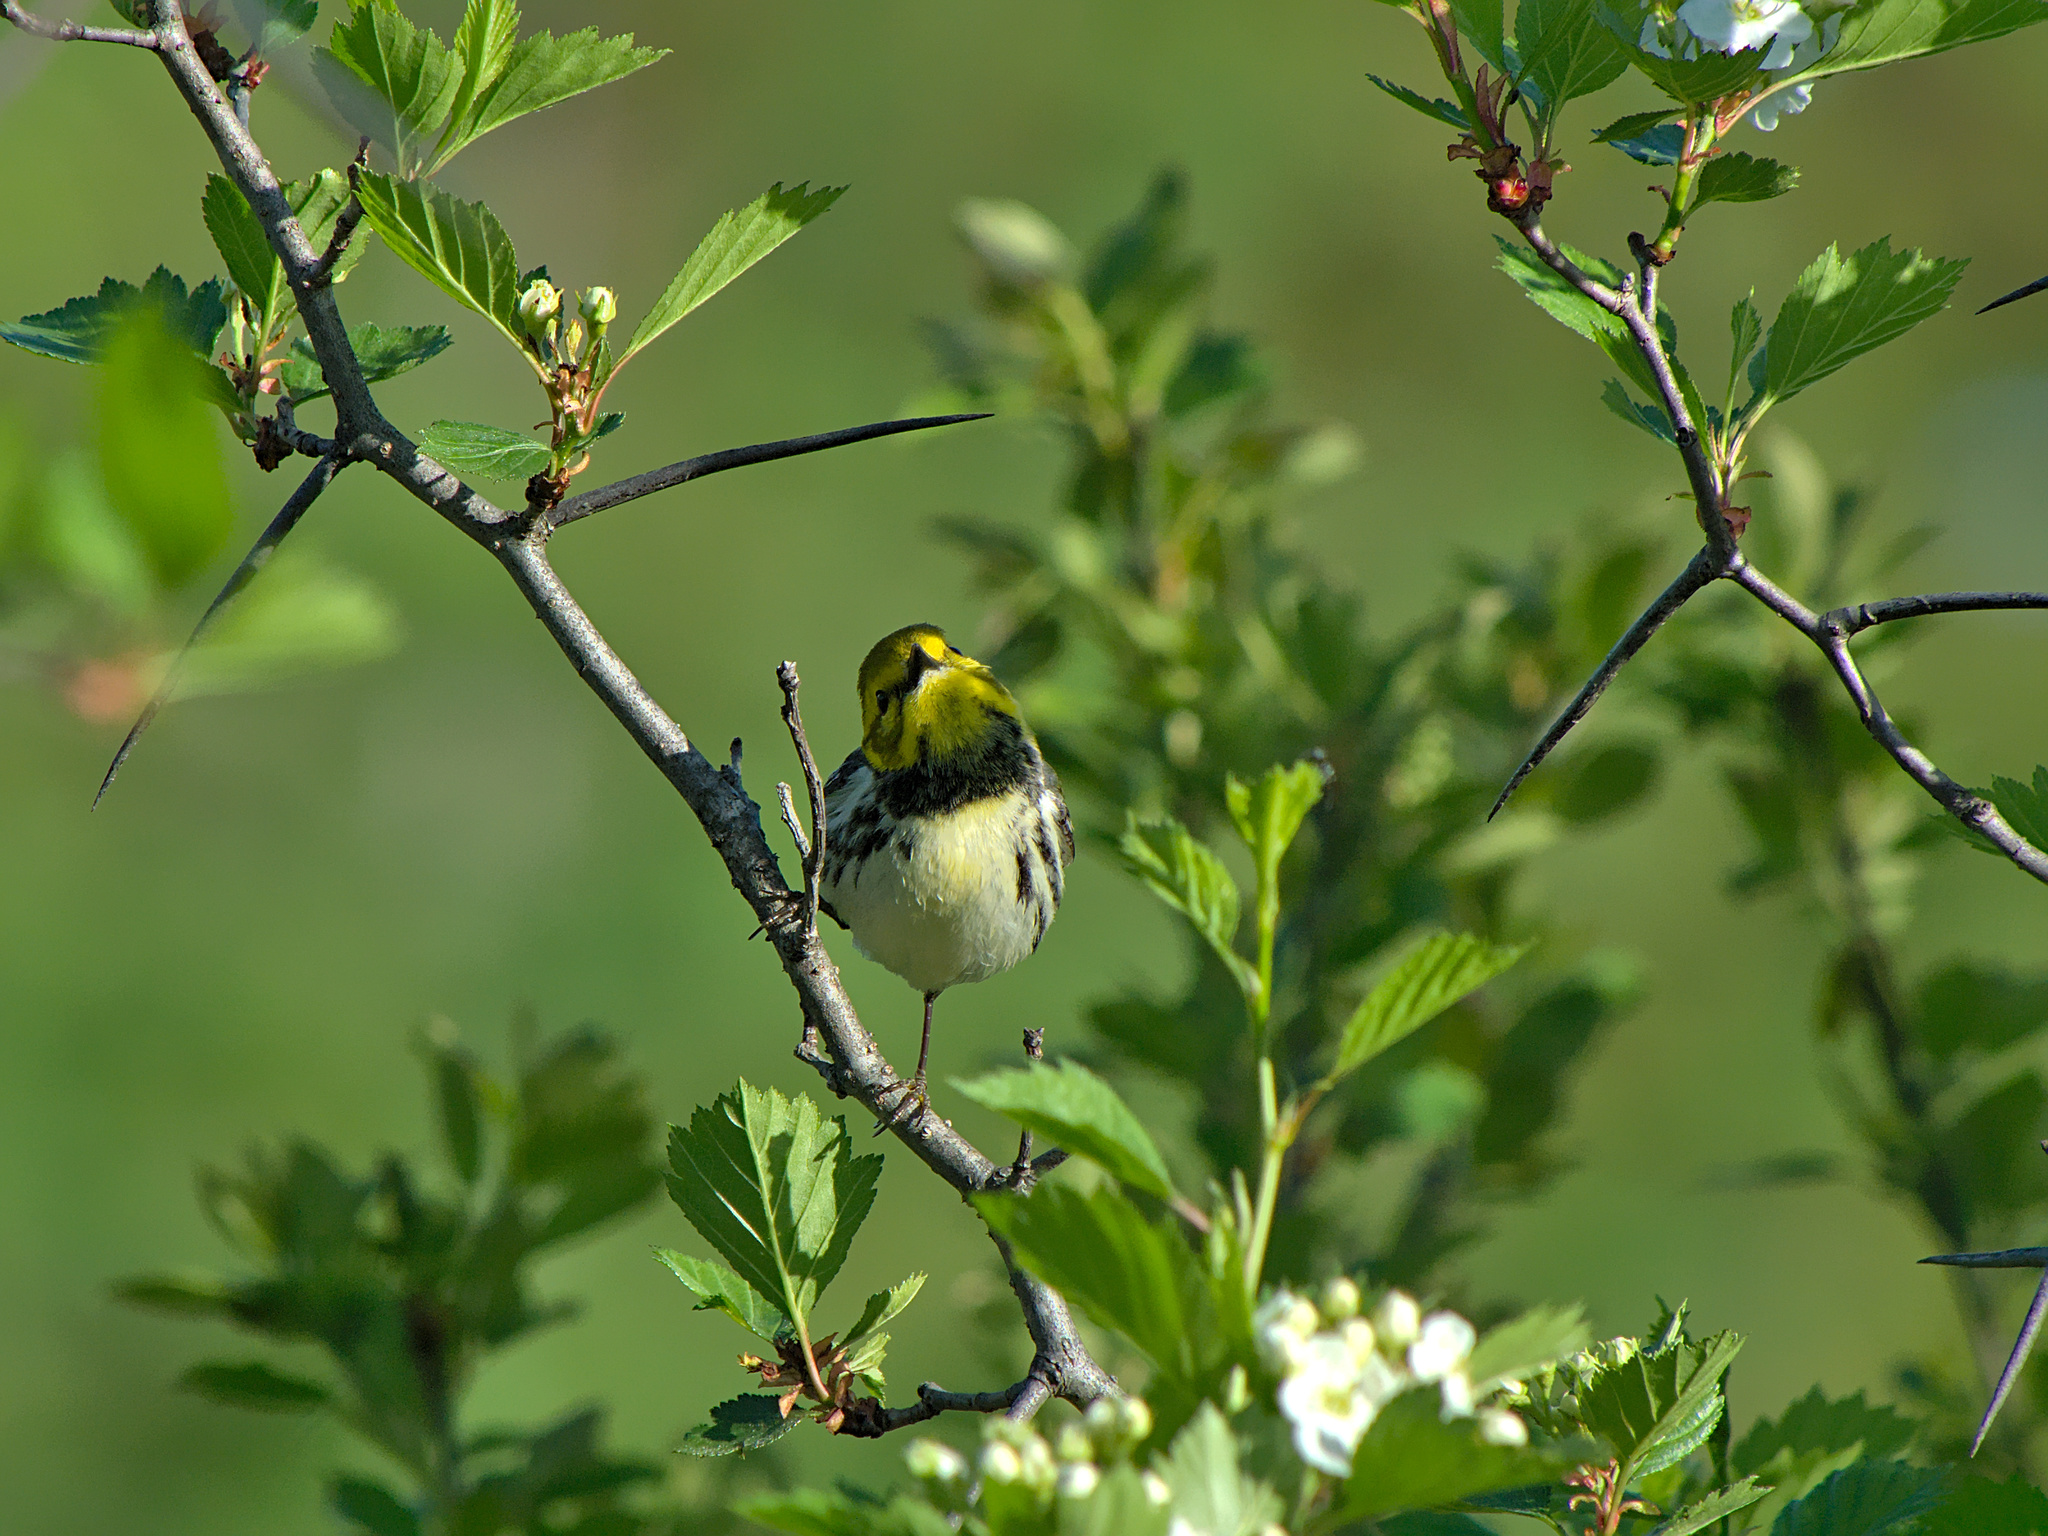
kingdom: Animalia
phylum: Chordata
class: Aves
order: Passeriformes
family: Parulidae
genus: Setophaga
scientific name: Setophaga virens
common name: Black-throated green warbler
